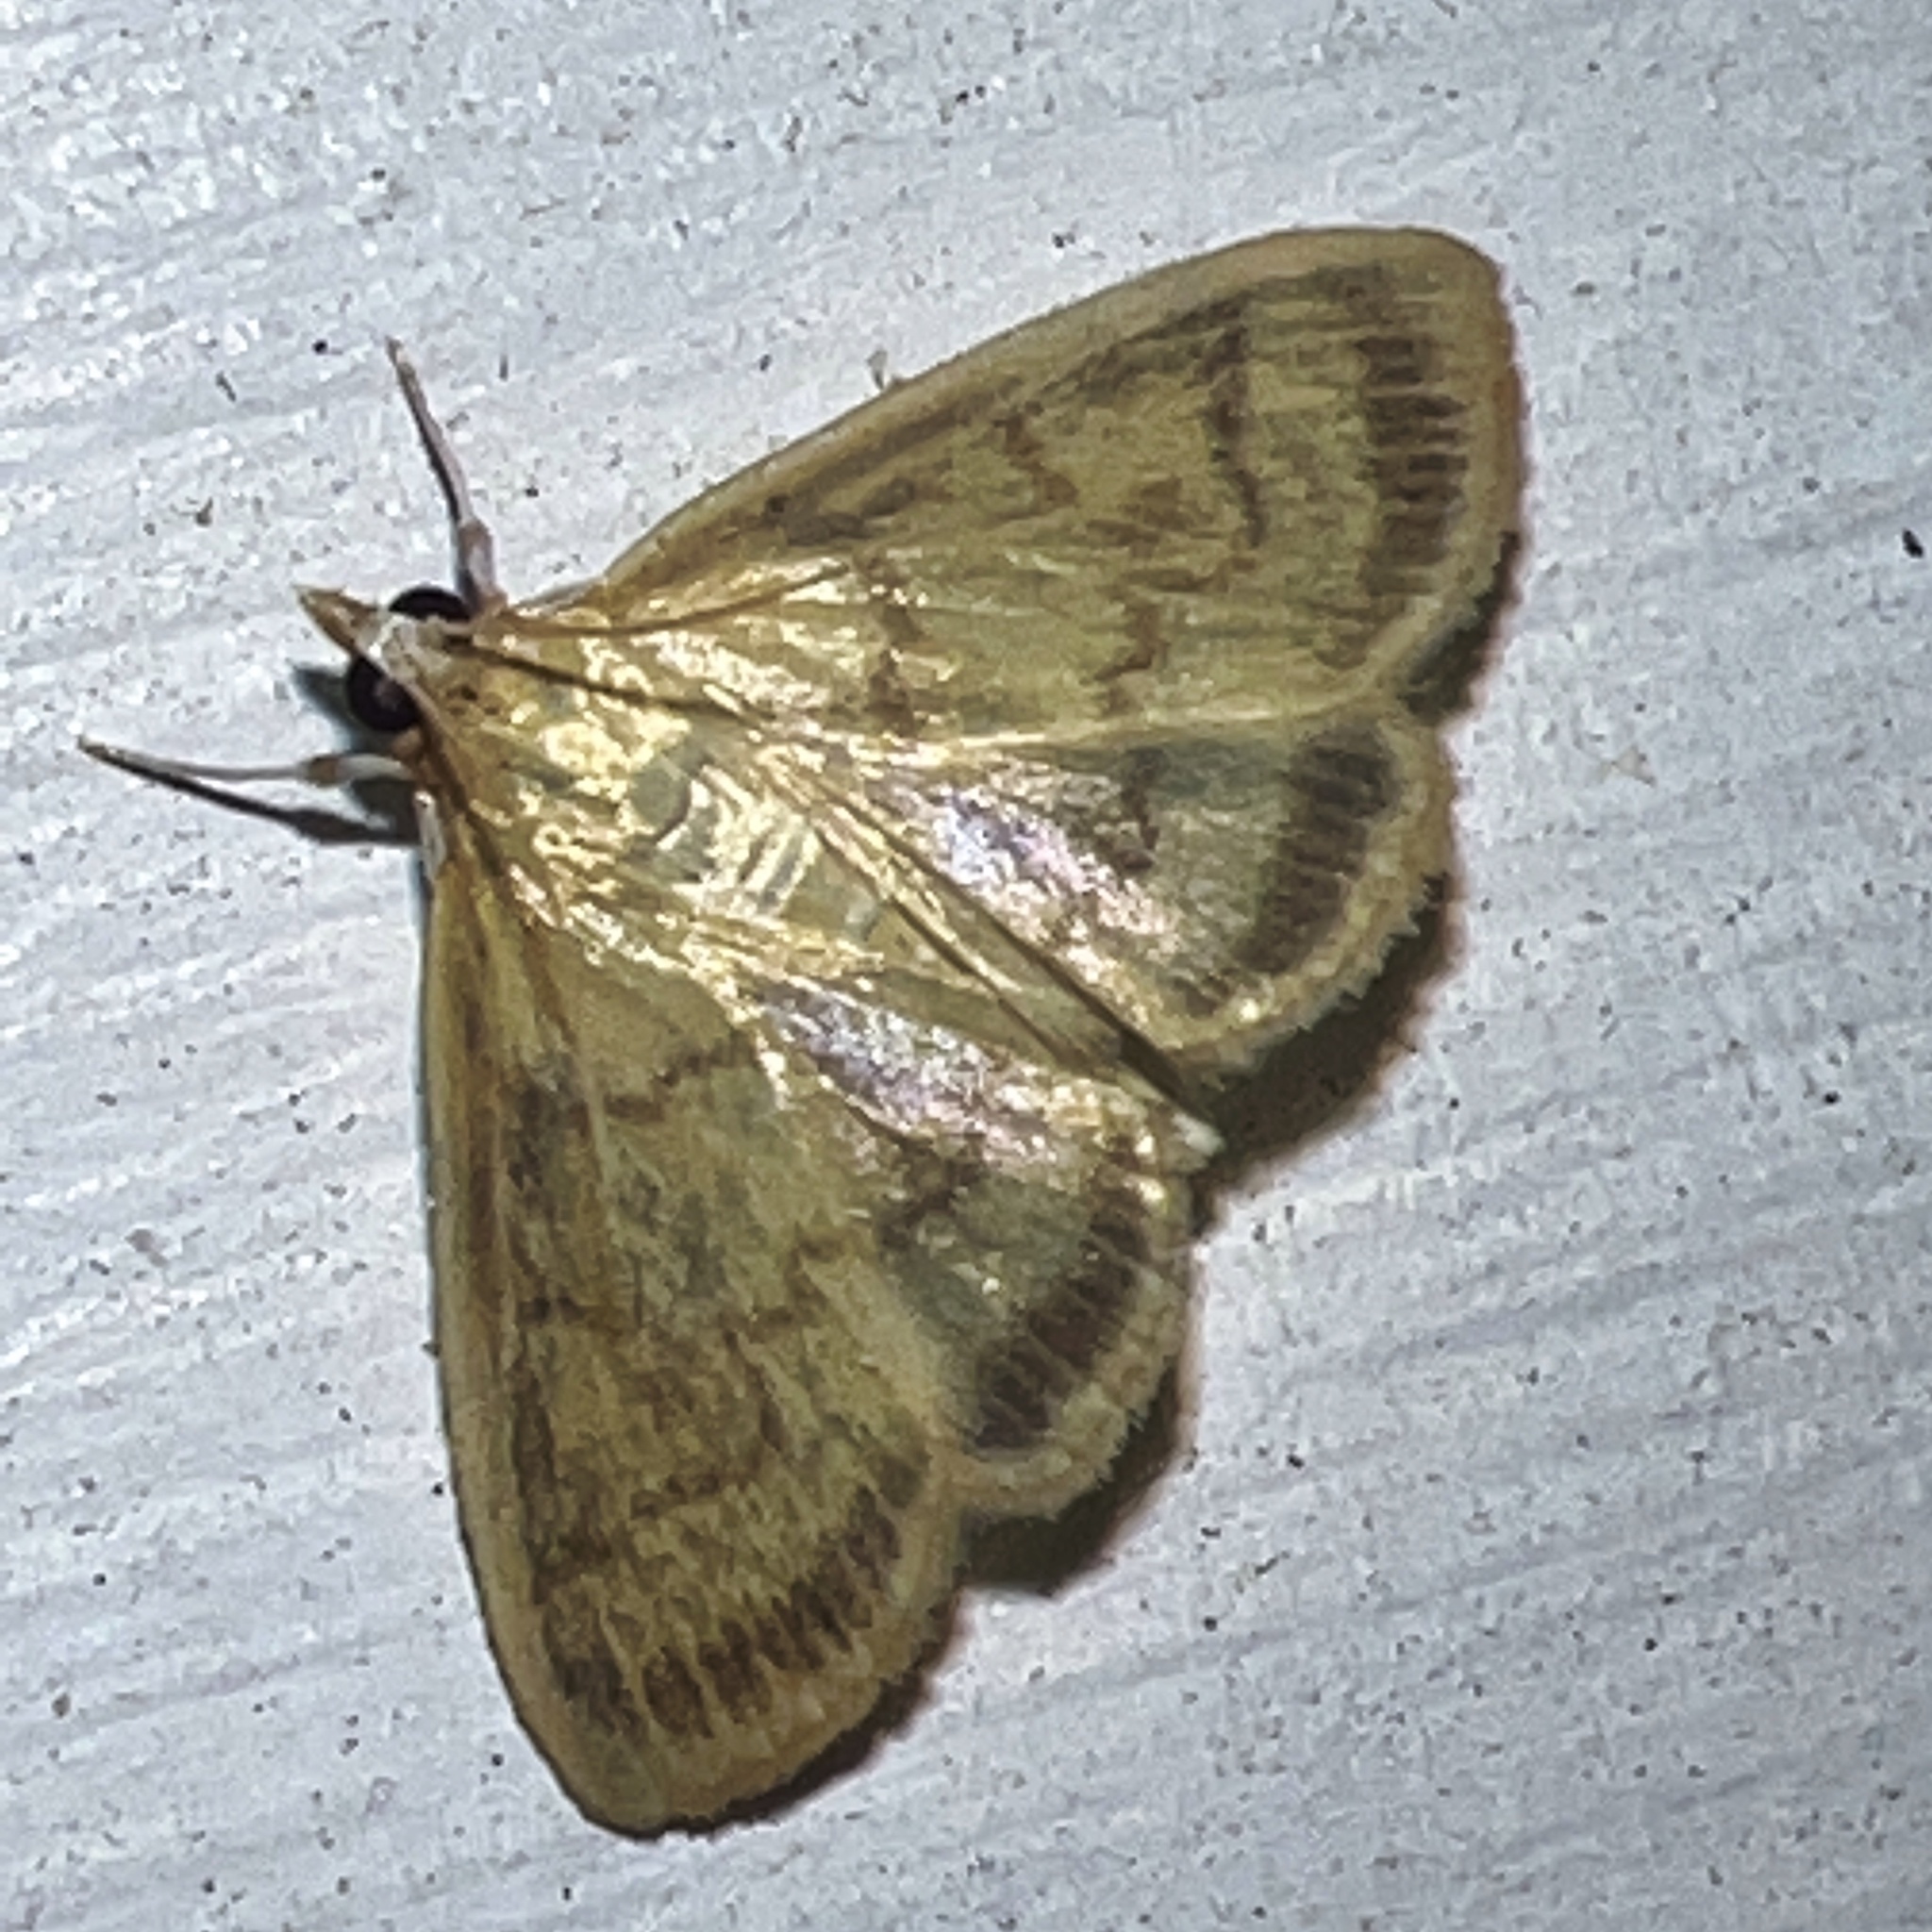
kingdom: Animalia
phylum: Arthropoda
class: Insecta
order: Lepidoptera
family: Crambidae
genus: Crocidophora
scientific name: Crocidophora tuberculalis
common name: Pale-winged crocidiphora moth
